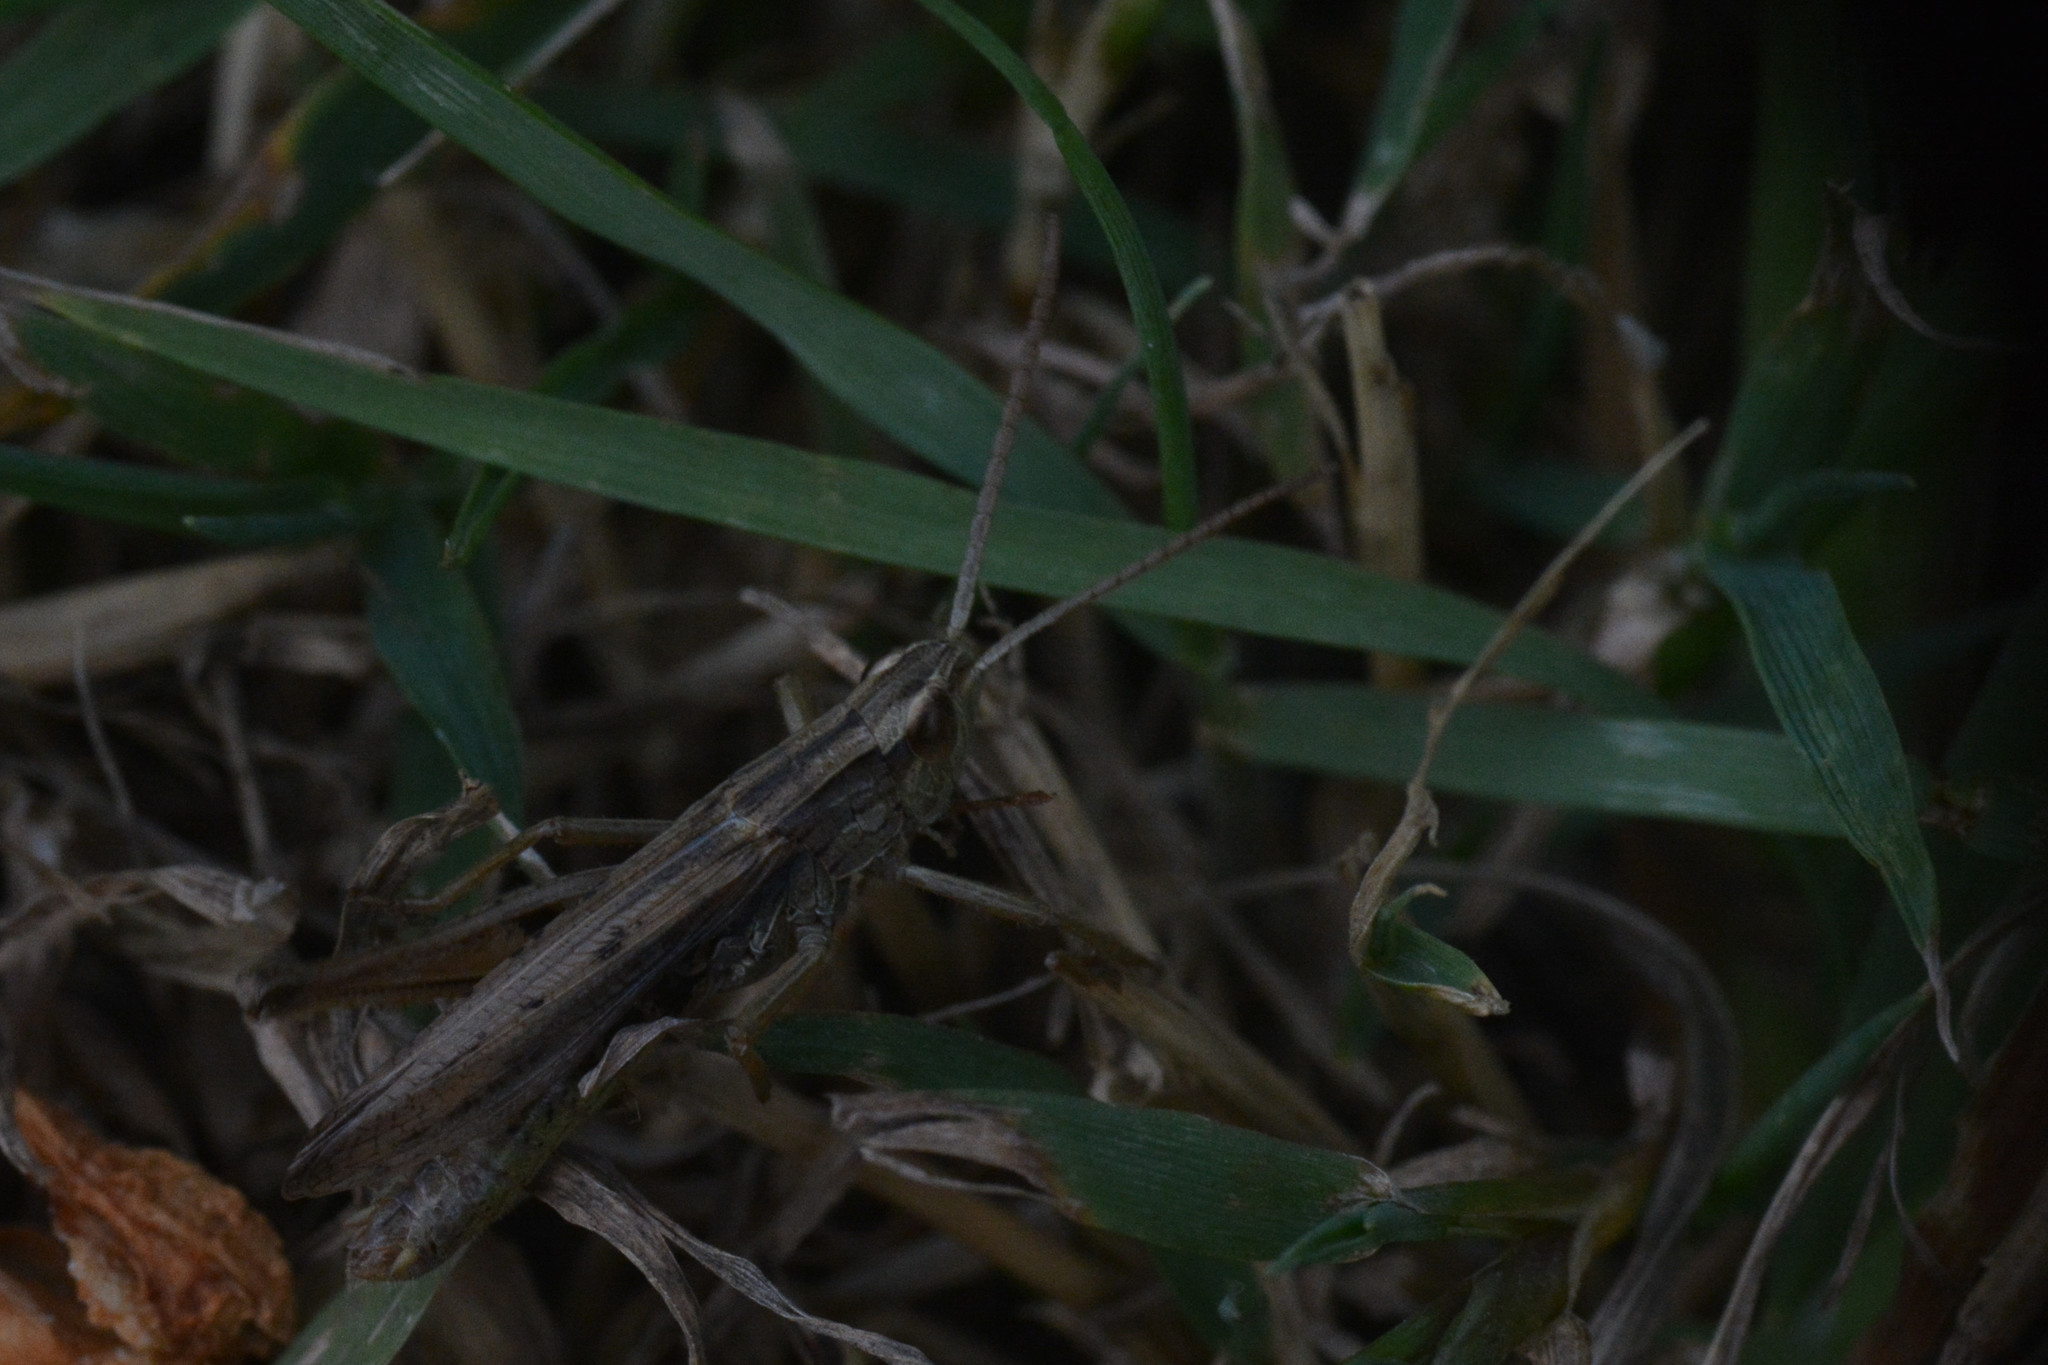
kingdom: Animalia
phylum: Arthropoda
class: Insecta
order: Orthoptera
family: Acrididae
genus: Chorthippus
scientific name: Chorthippus albomarginatus
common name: Lesser marsh grasshopper
